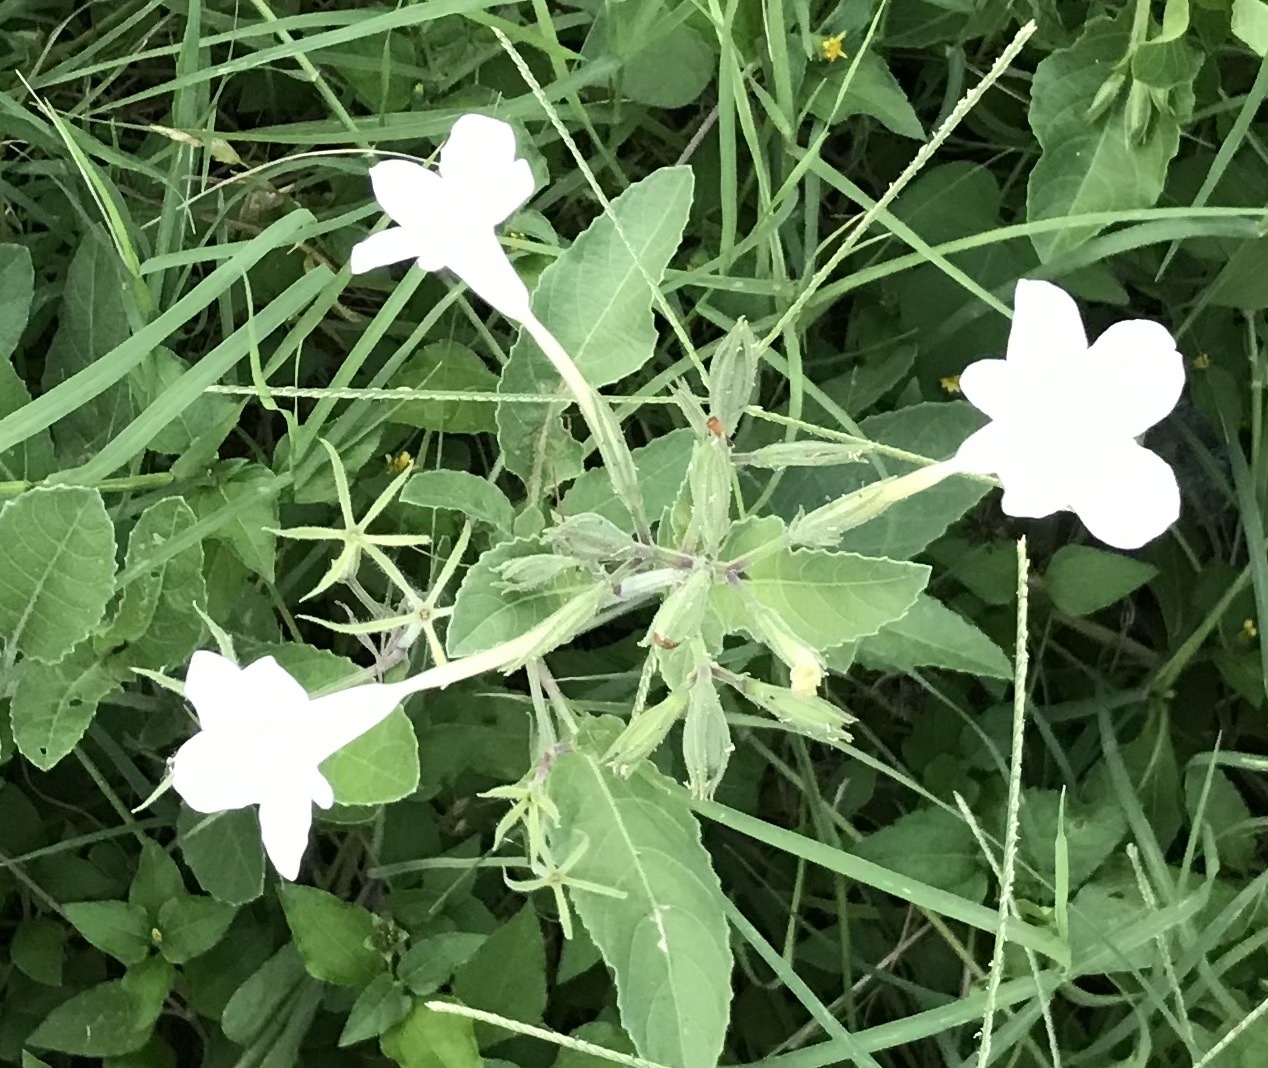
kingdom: Plantae
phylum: Tracheophyta
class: Magnoliopsida
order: Lamiales
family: Acanthaceae
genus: Ruellia
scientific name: Ruellia metziae
